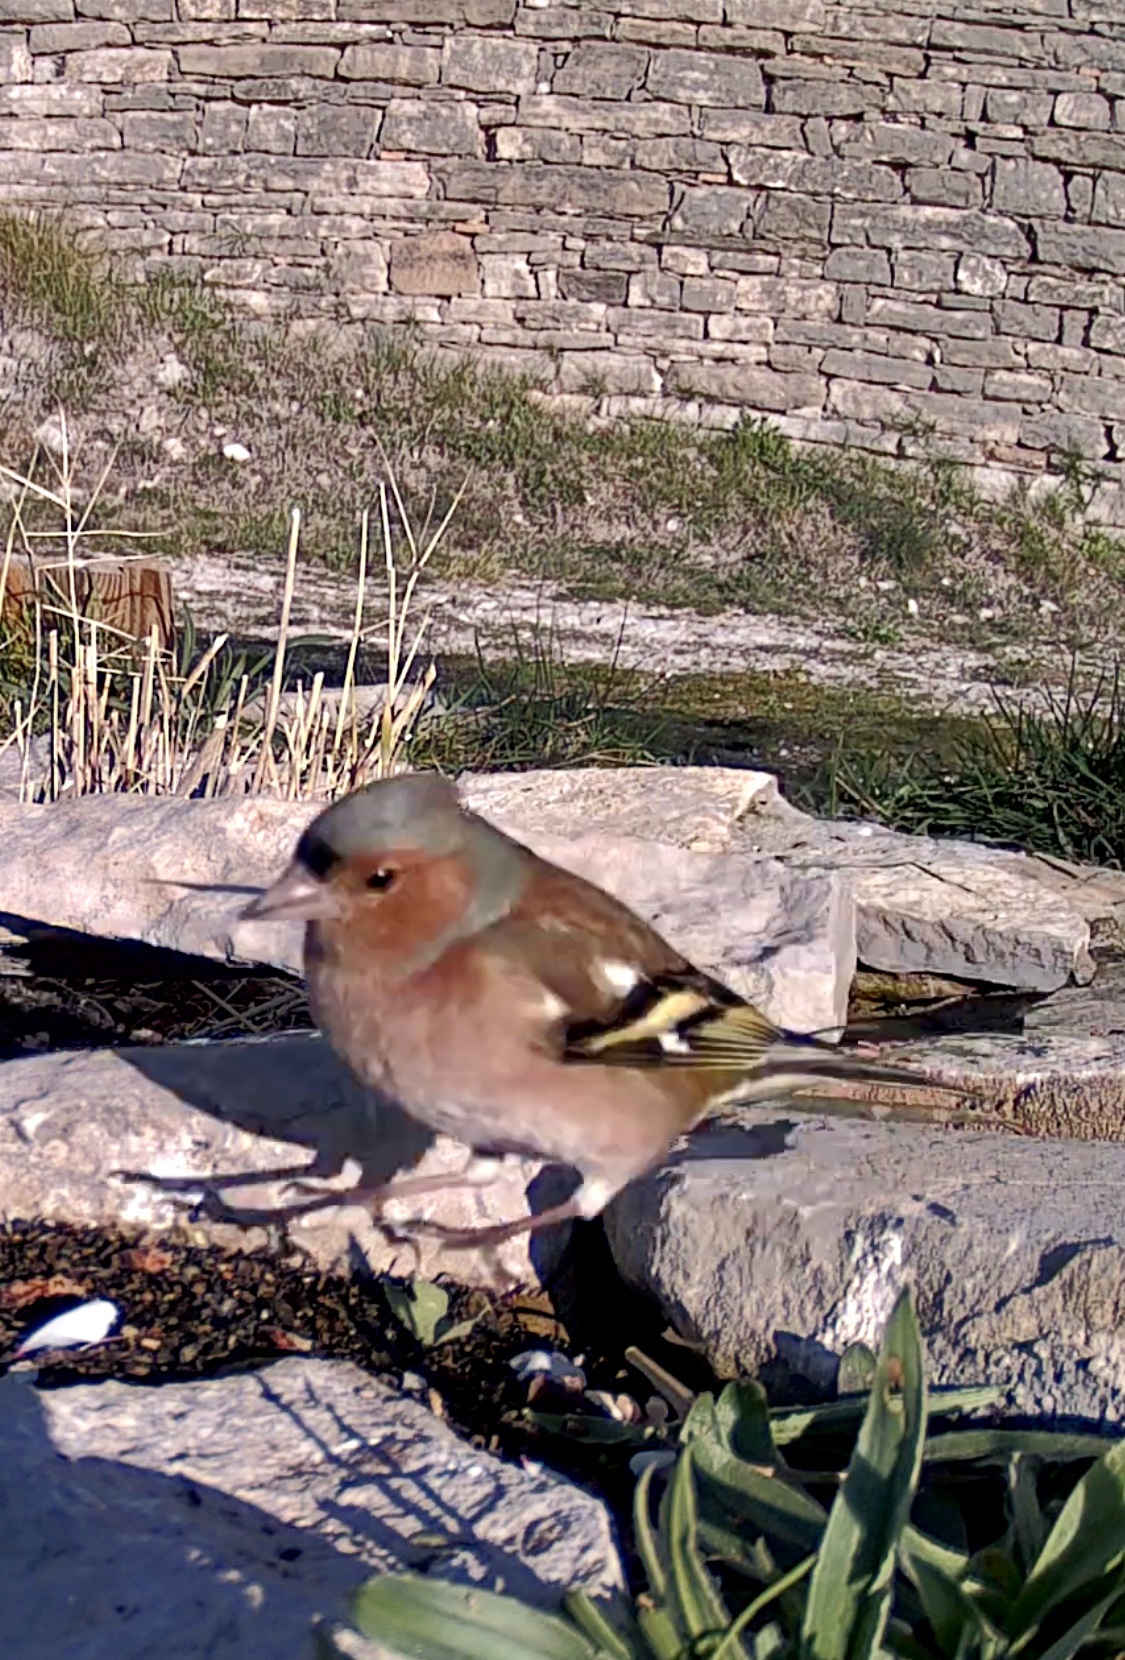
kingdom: Animalia
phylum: Chordata
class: Aves
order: Passeriformes
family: Fringillidae
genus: Fringilla
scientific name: Fringilla coelebs
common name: Common chaffinch
